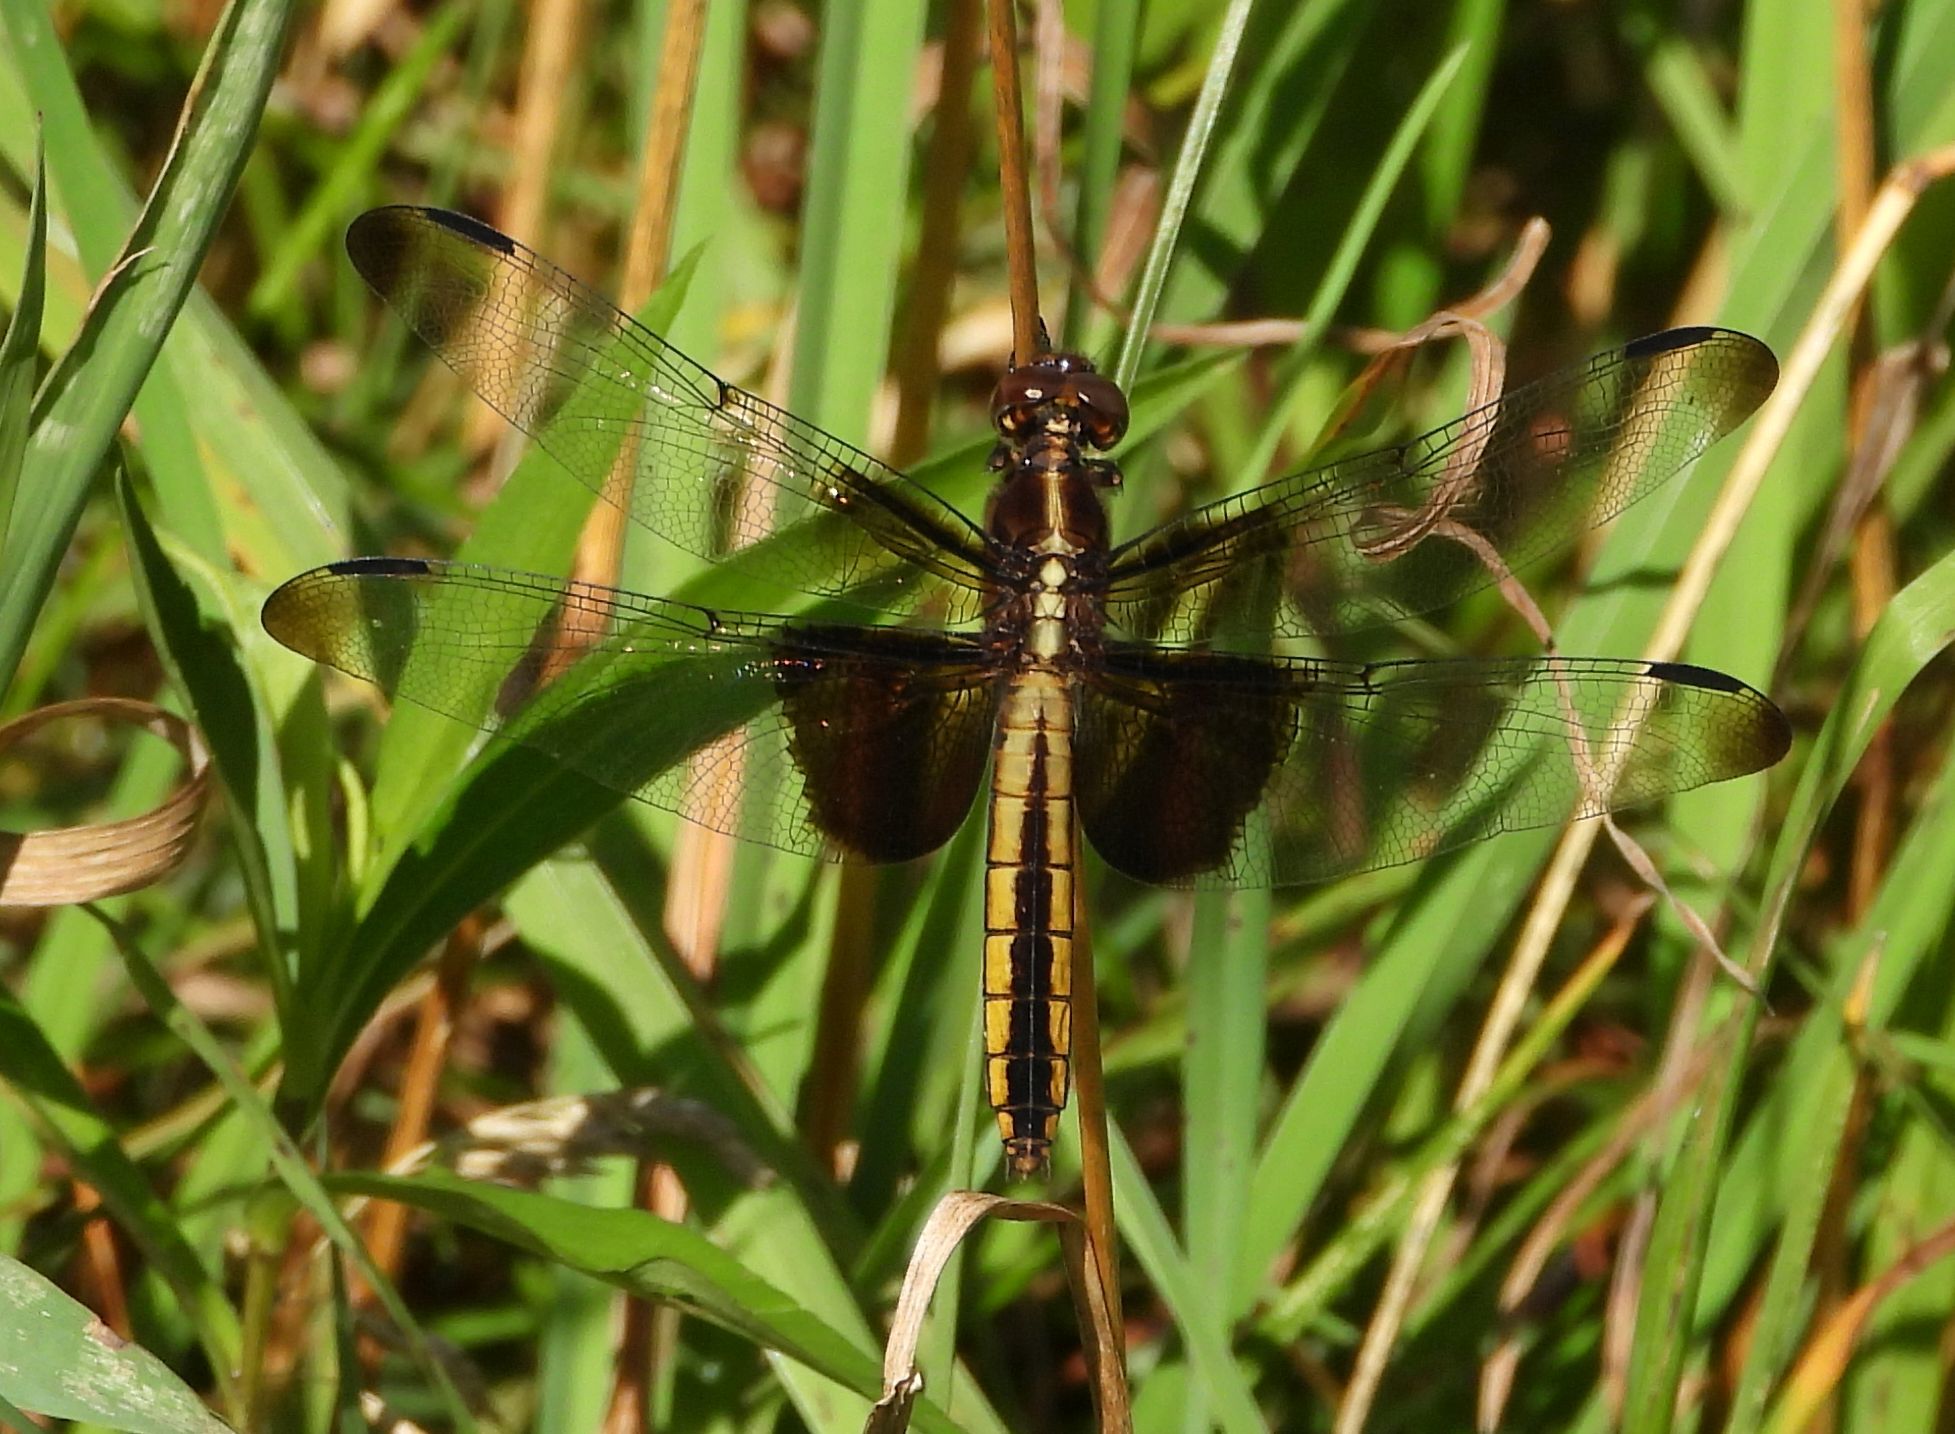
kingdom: Animalia
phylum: Arthropoda
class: Insecta
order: Odonata
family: Libellulidae
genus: Libellula
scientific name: Libellula luctuosa
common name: Widow skimmer
